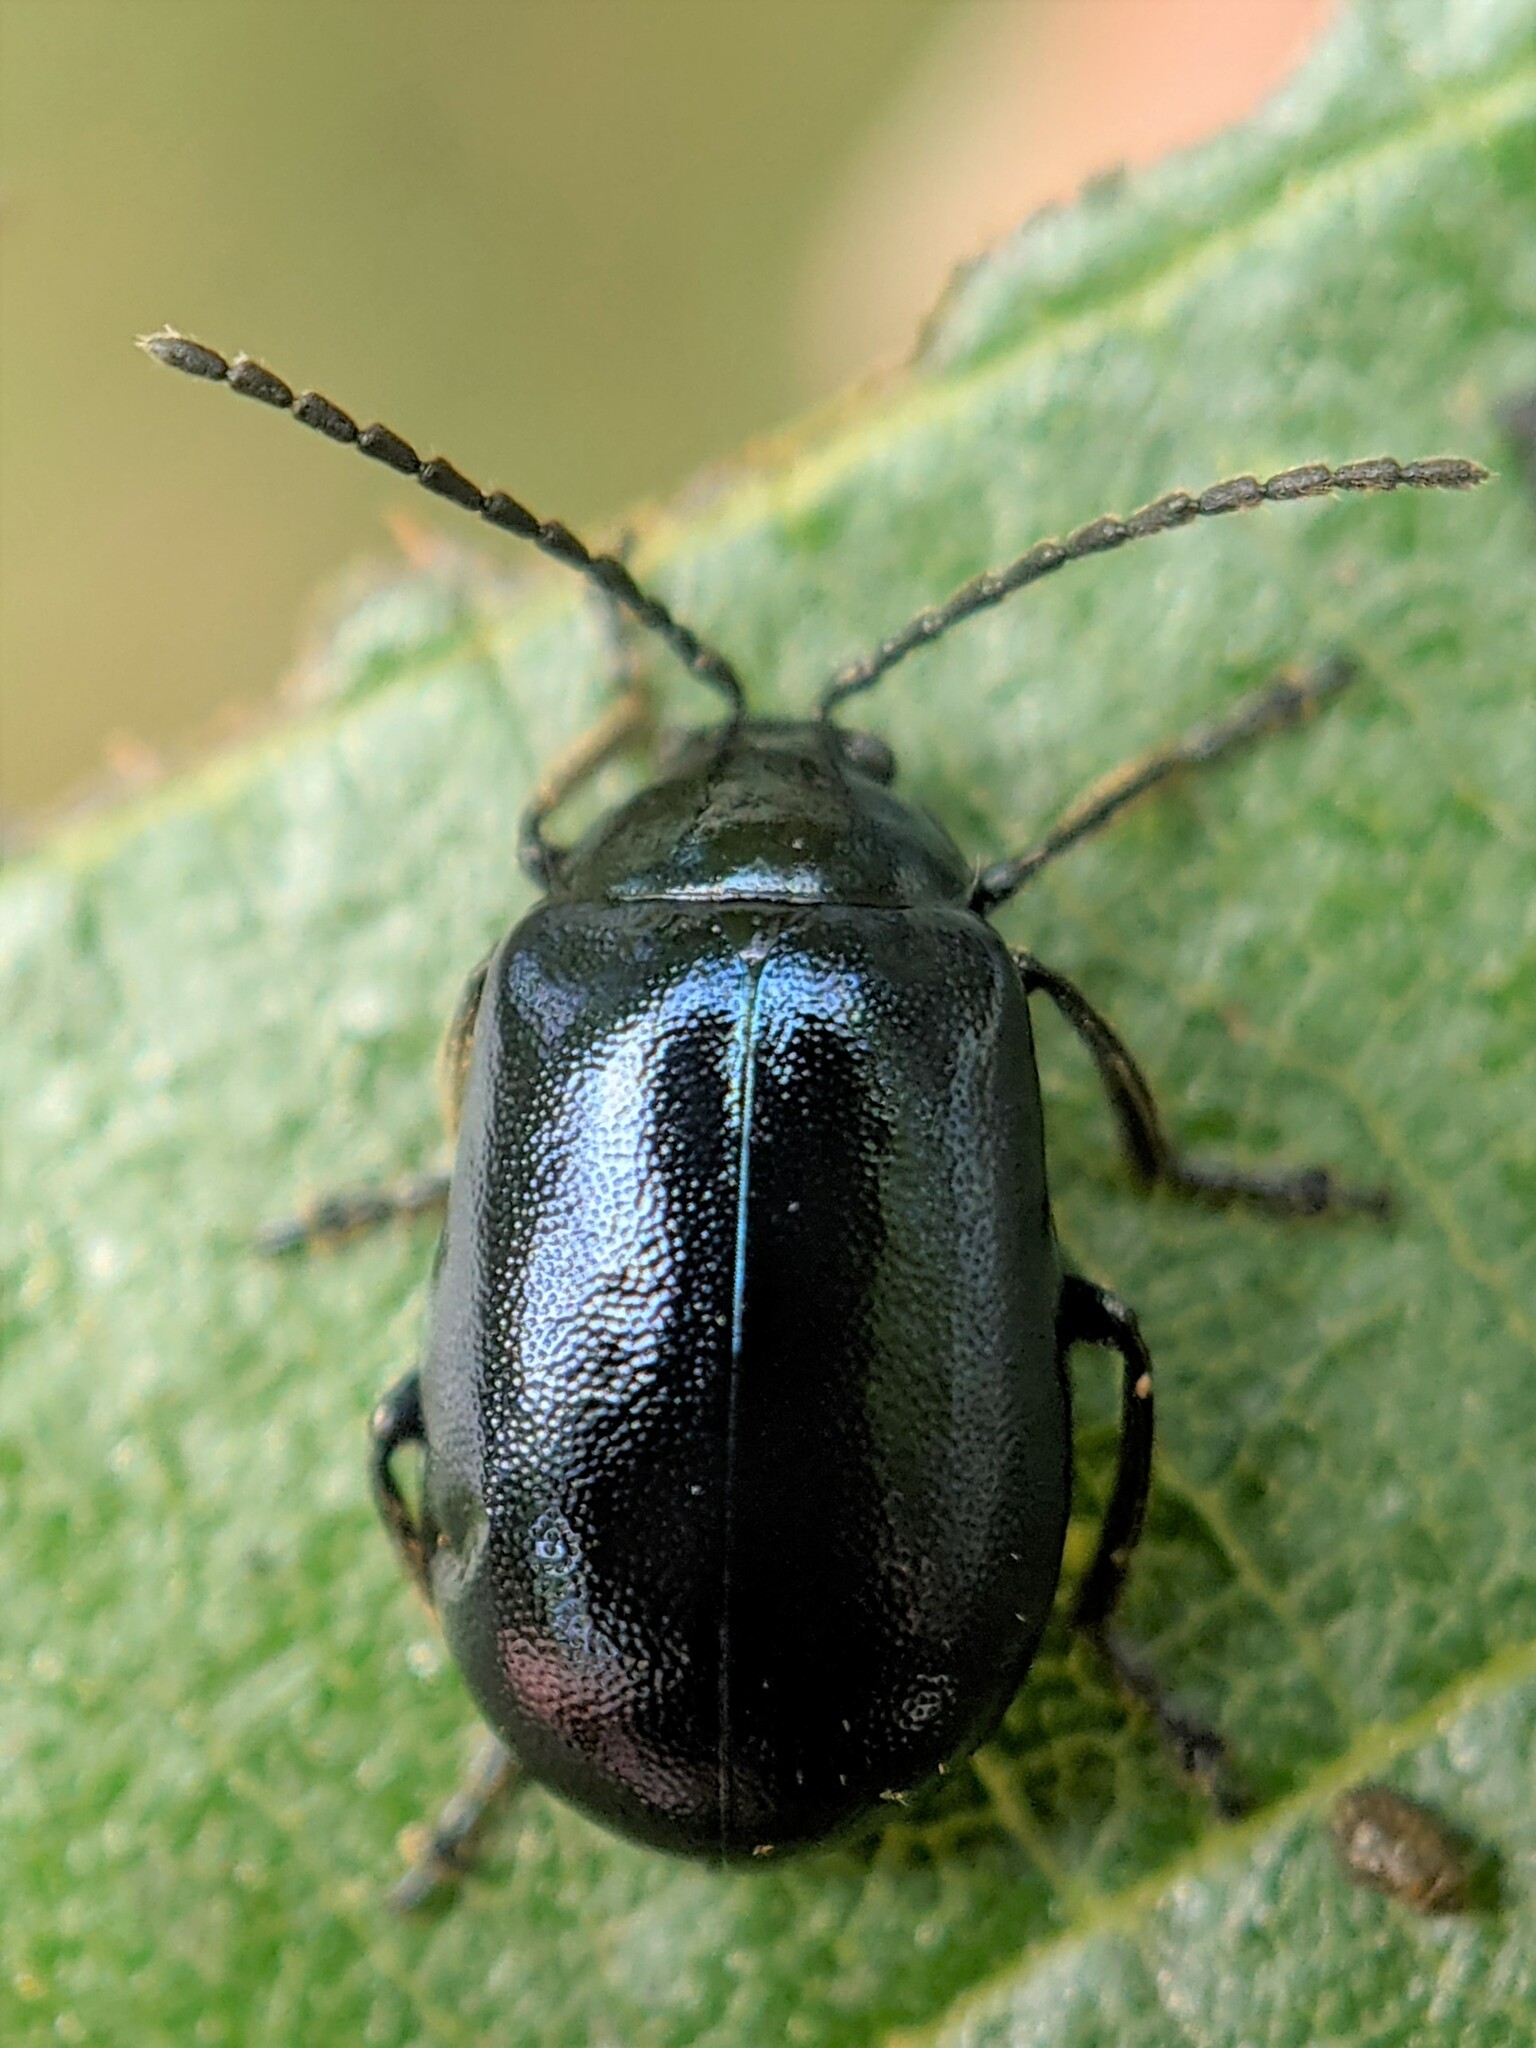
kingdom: Animalia
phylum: Arthropoda
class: Insecta
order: Coleoptera
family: Chrysomelidae
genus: Agelastica
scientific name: Agelastica alni
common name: Alder leaf beetle
